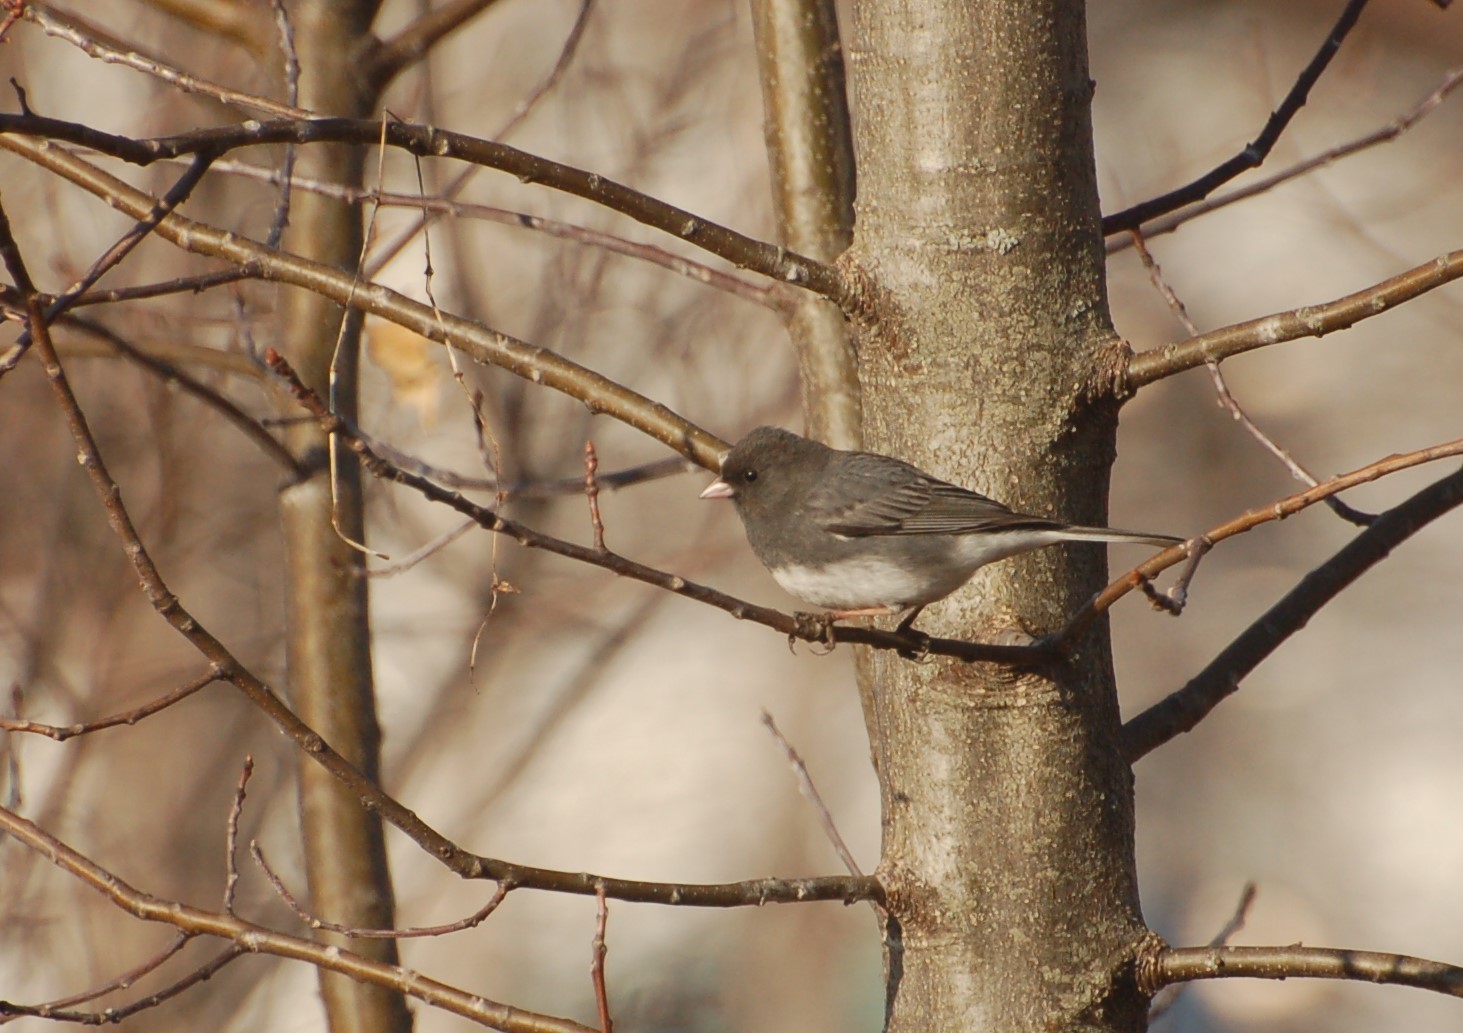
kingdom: Animalia
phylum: Chordata
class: Aves
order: Passeriformes
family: Passerellidae
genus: Junco
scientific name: Junco hyemalis
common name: Dark-eyed junco
